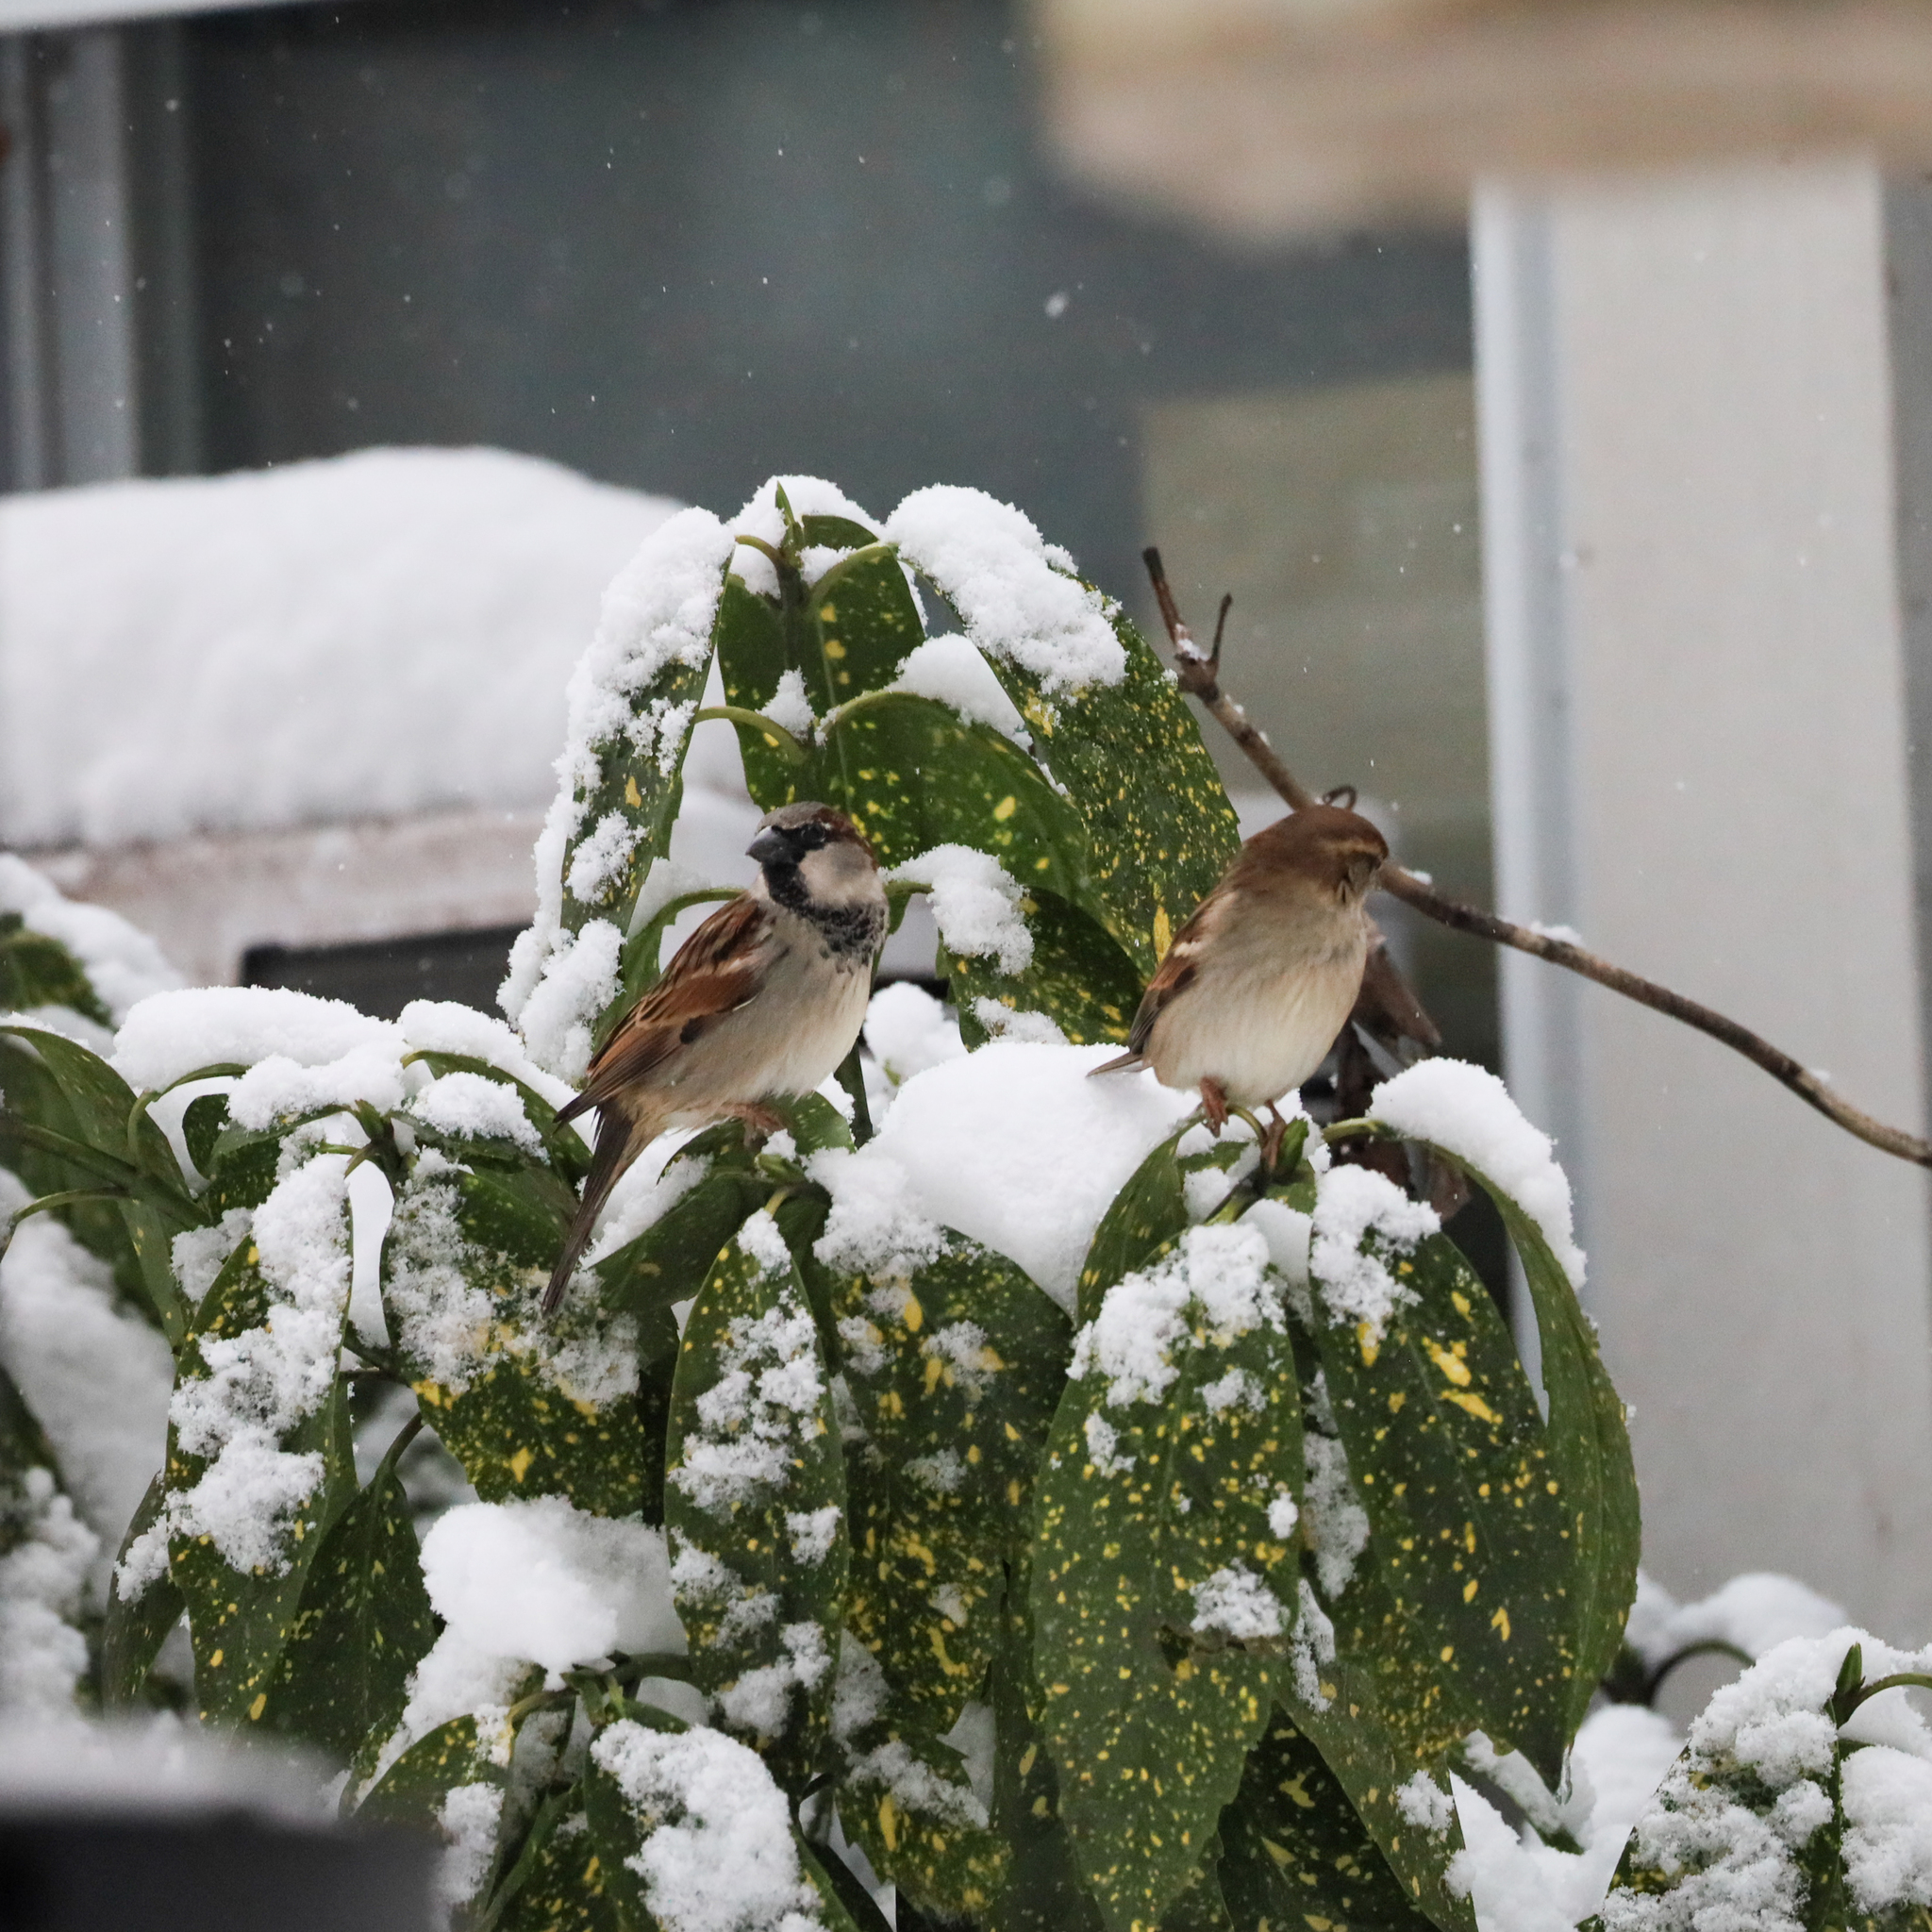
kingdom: Animalia
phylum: Chordata
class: Aves
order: Passeriformes
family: Passeridae
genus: Passer
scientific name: Passer domesticus
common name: House sparrow
